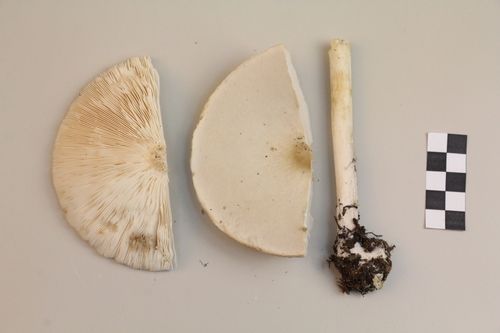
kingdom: Fungi
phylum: Basidiomycota
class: Agaricomycetes
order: Agaricales
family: Tricholomataceae
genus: Melanoleuca
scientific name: Melanoleuca strictipes
